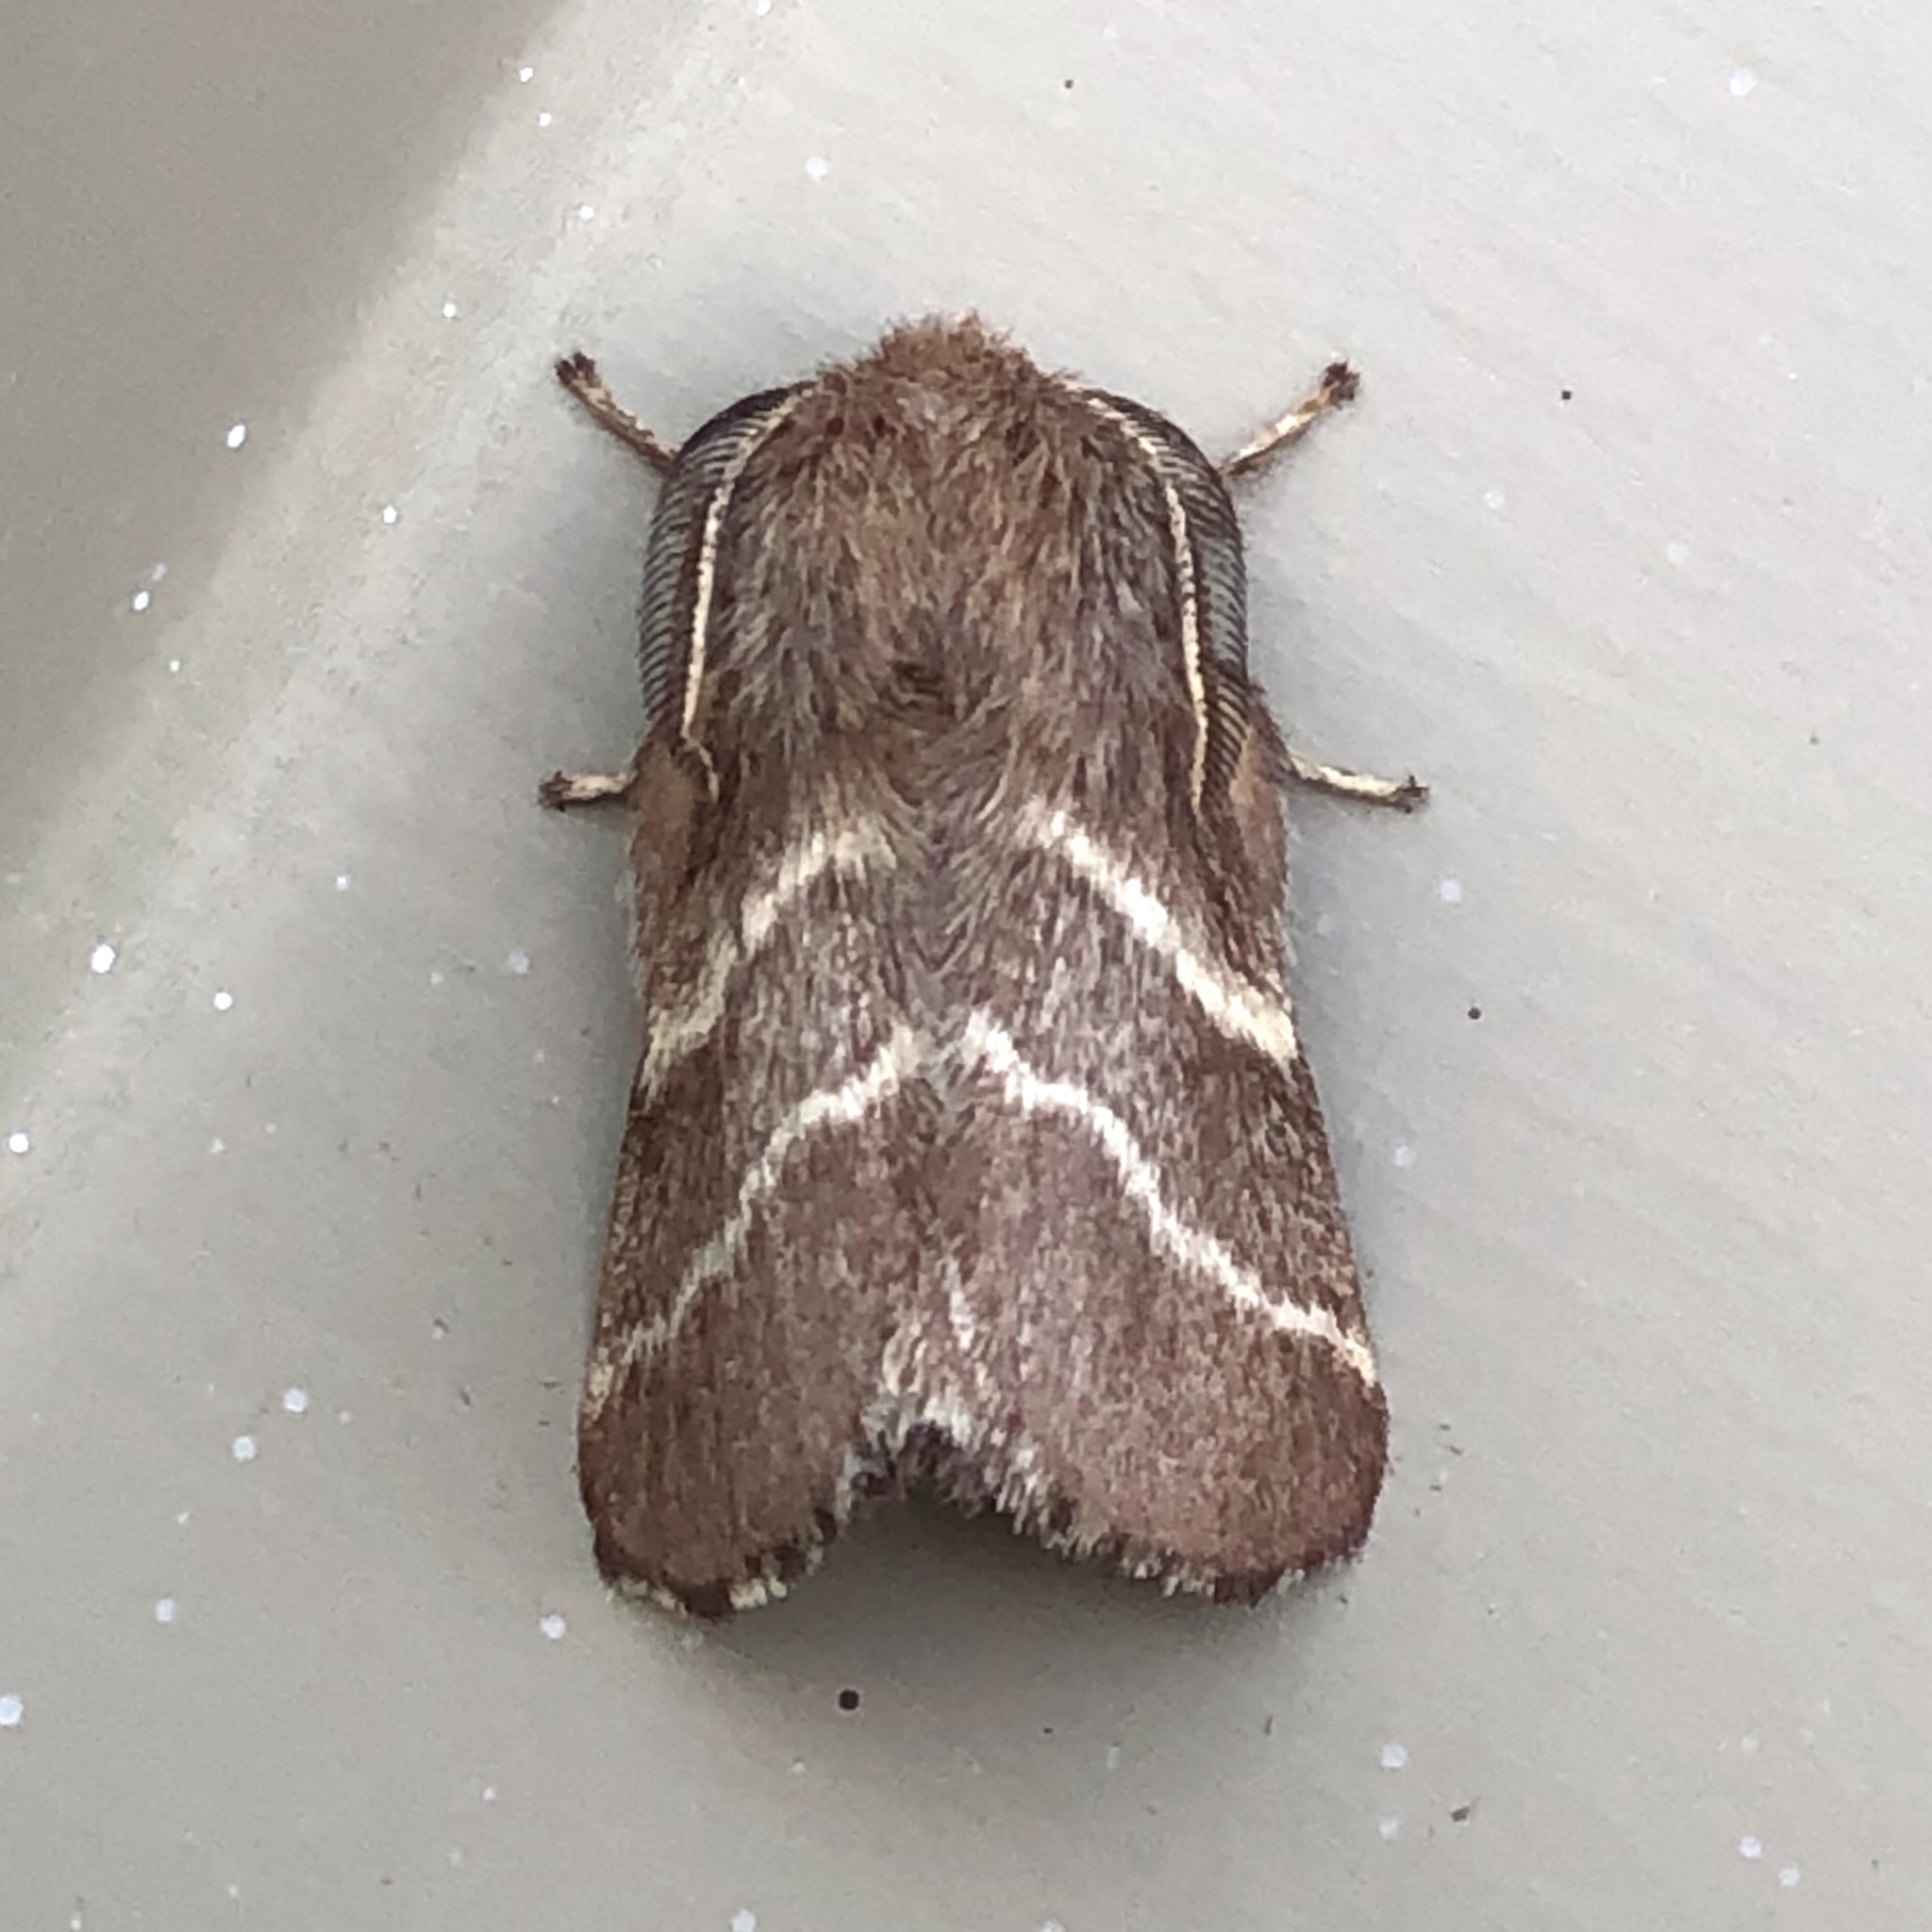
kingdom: Animalia
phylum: Arthropoda
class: Insecta
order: Lepidoptera
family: Lasiocampidae
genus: Malacosoma
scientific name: Malacosoma americana
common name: Eastern tent caterpillar moth
